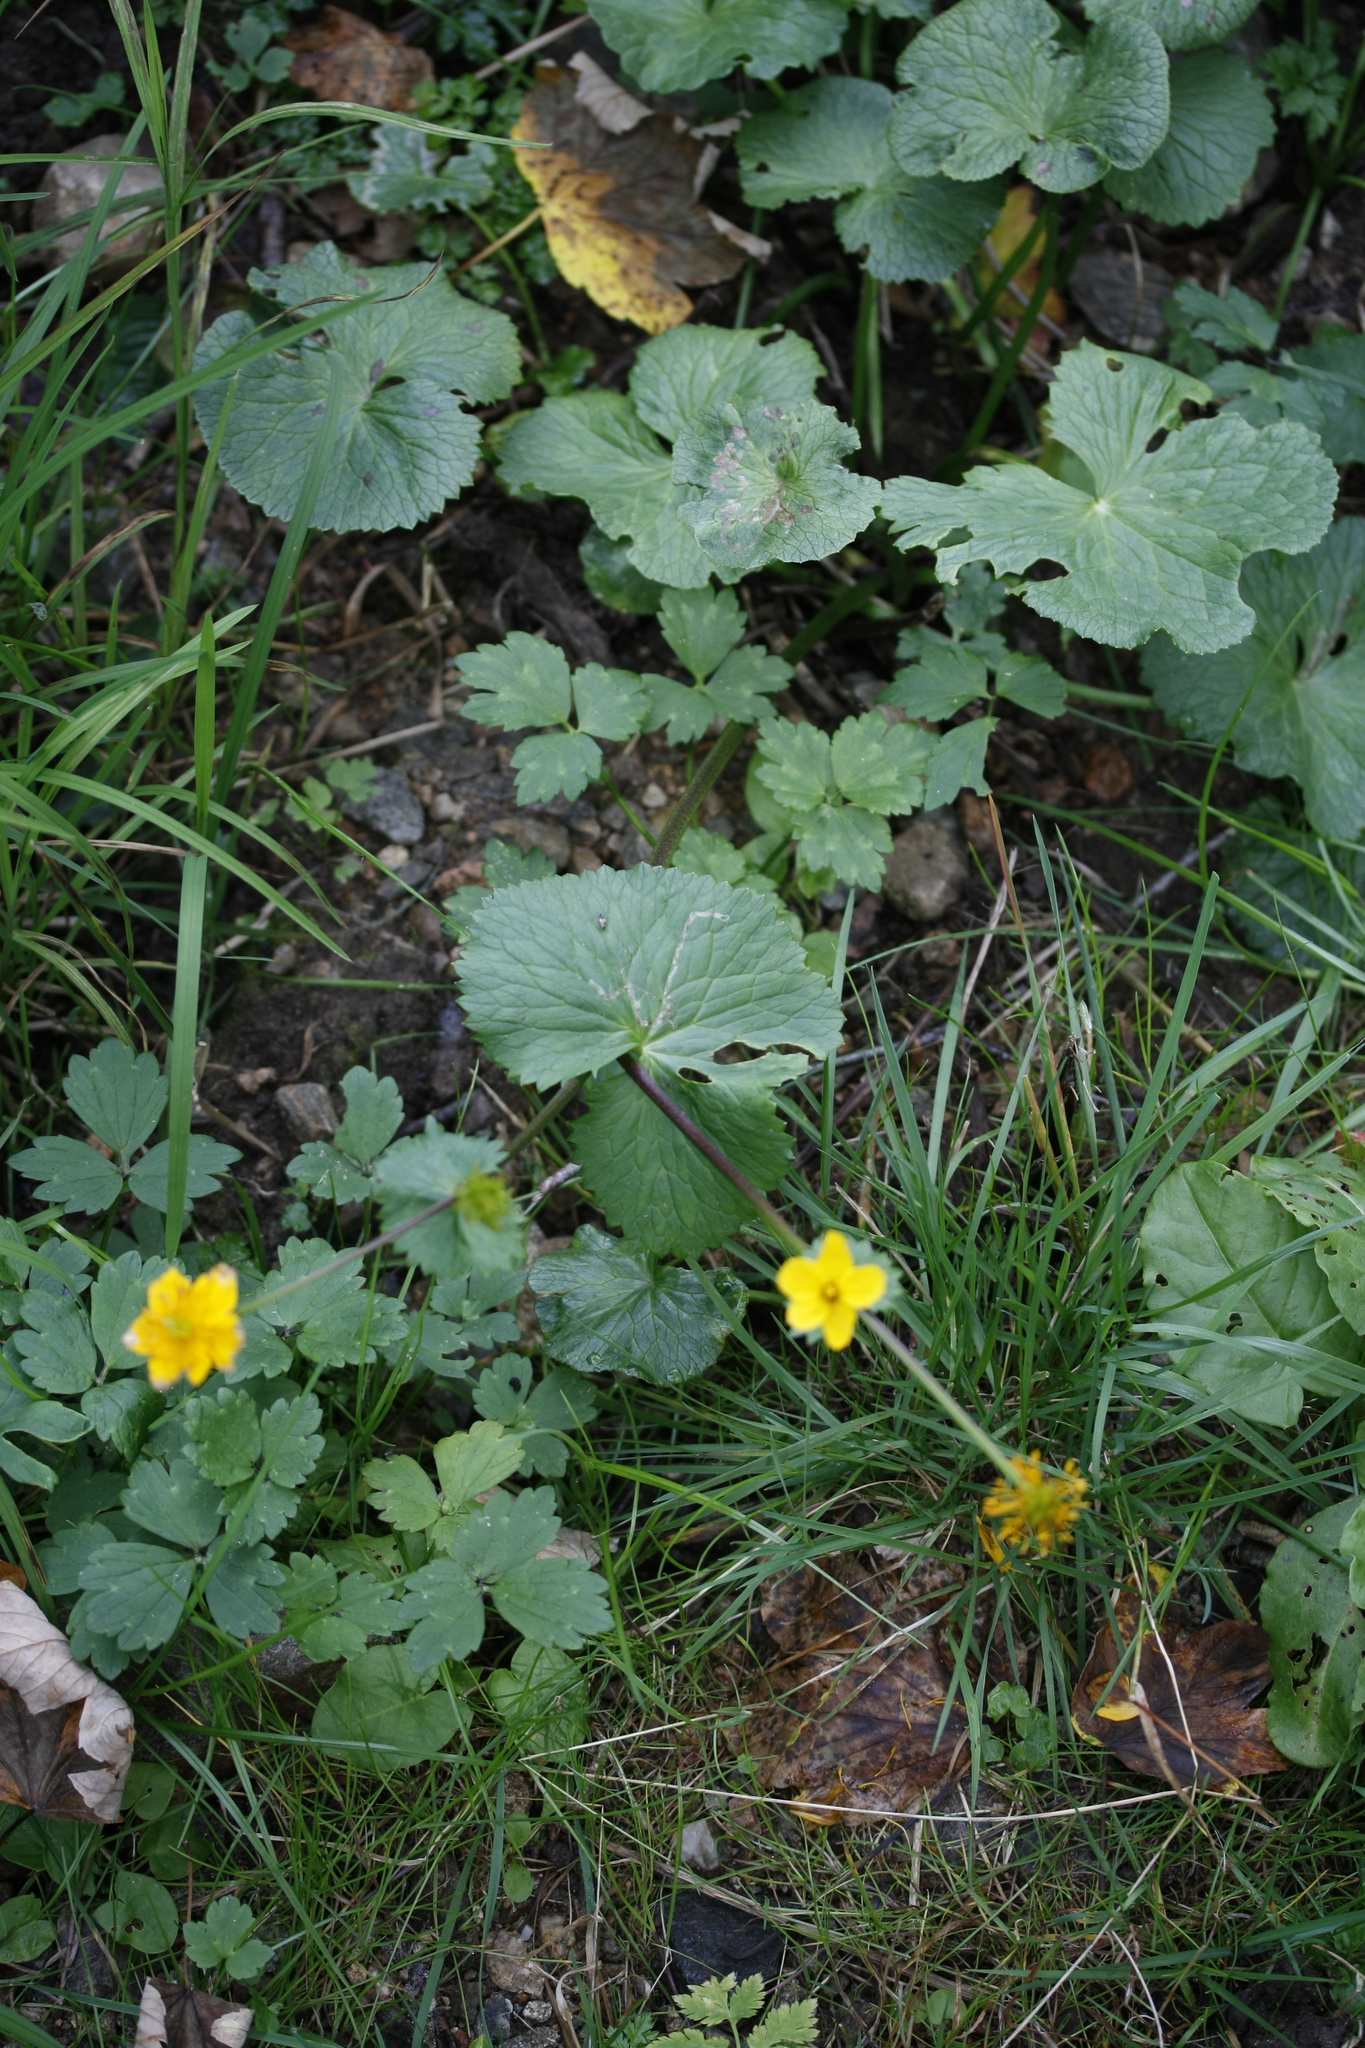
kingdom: Plantae
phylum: Tracheophyta
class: Magnoliopsida
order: Ranunculales
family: Ranunculaceae
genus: Caltha
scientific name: Caltha palustris
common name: Marsh marigold
